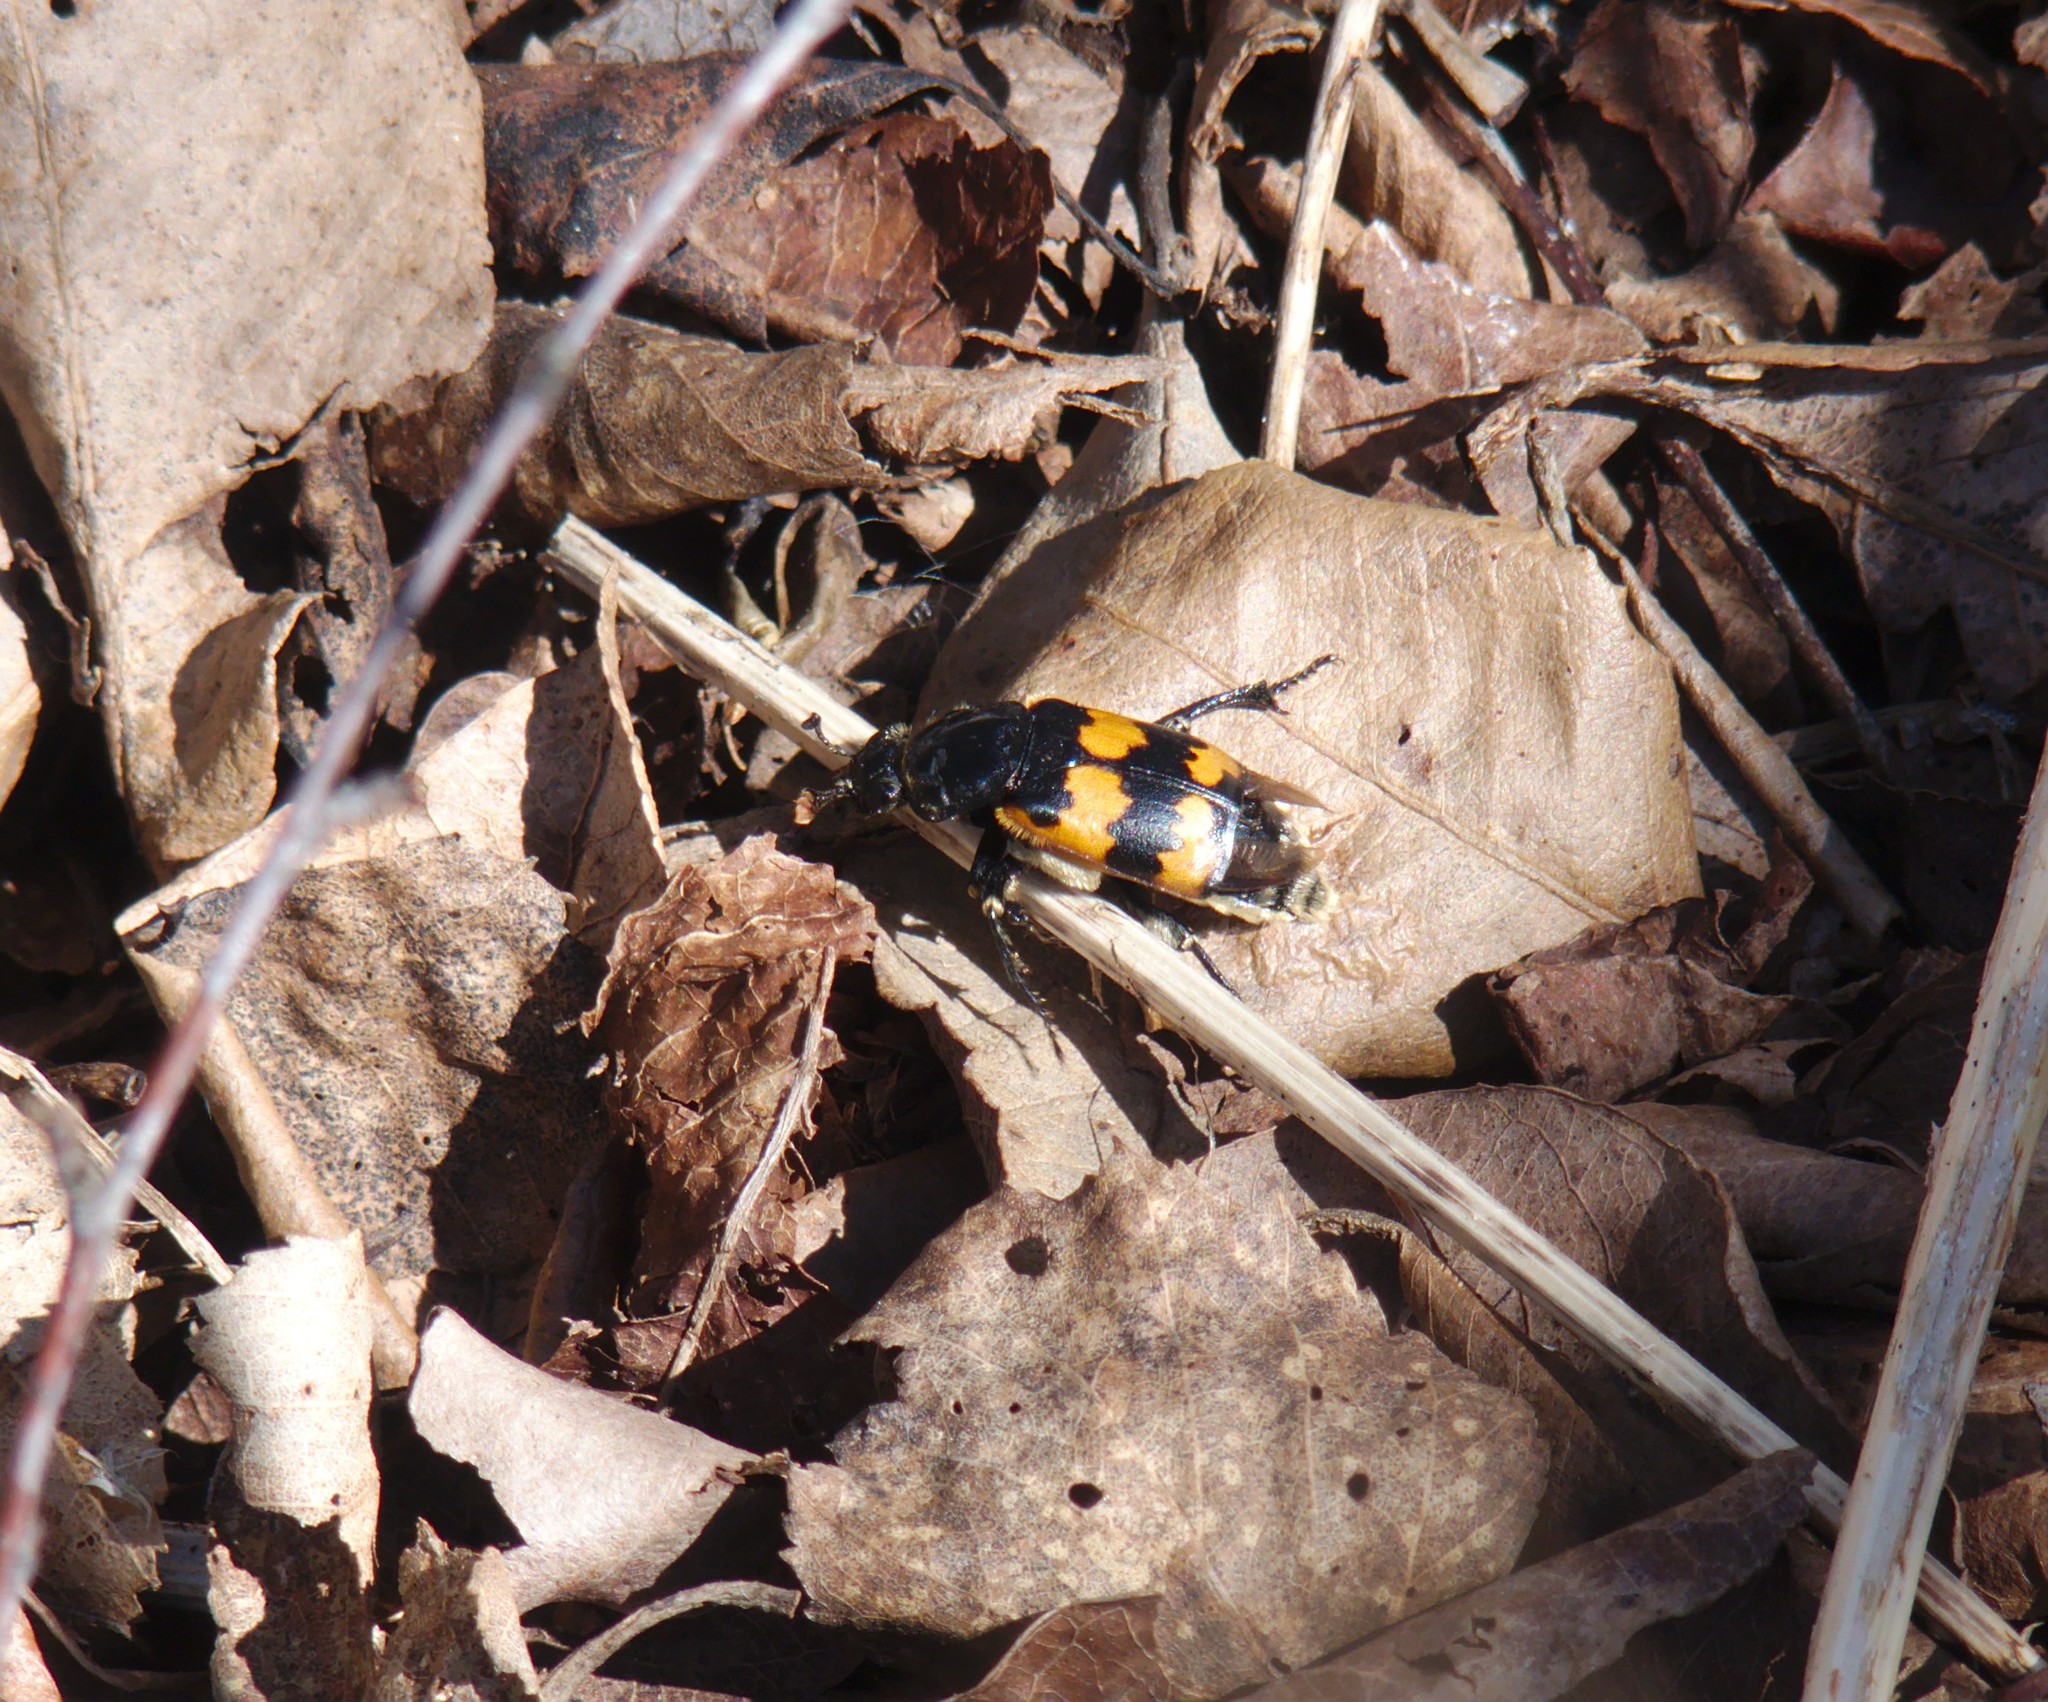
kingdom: Animalia
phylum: Arthropoda
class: Insecta
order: Coleoptera
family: Staphylinidae
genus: Nicrophorus
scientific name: Nicrophorus vespillo
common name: Common burying beetle
